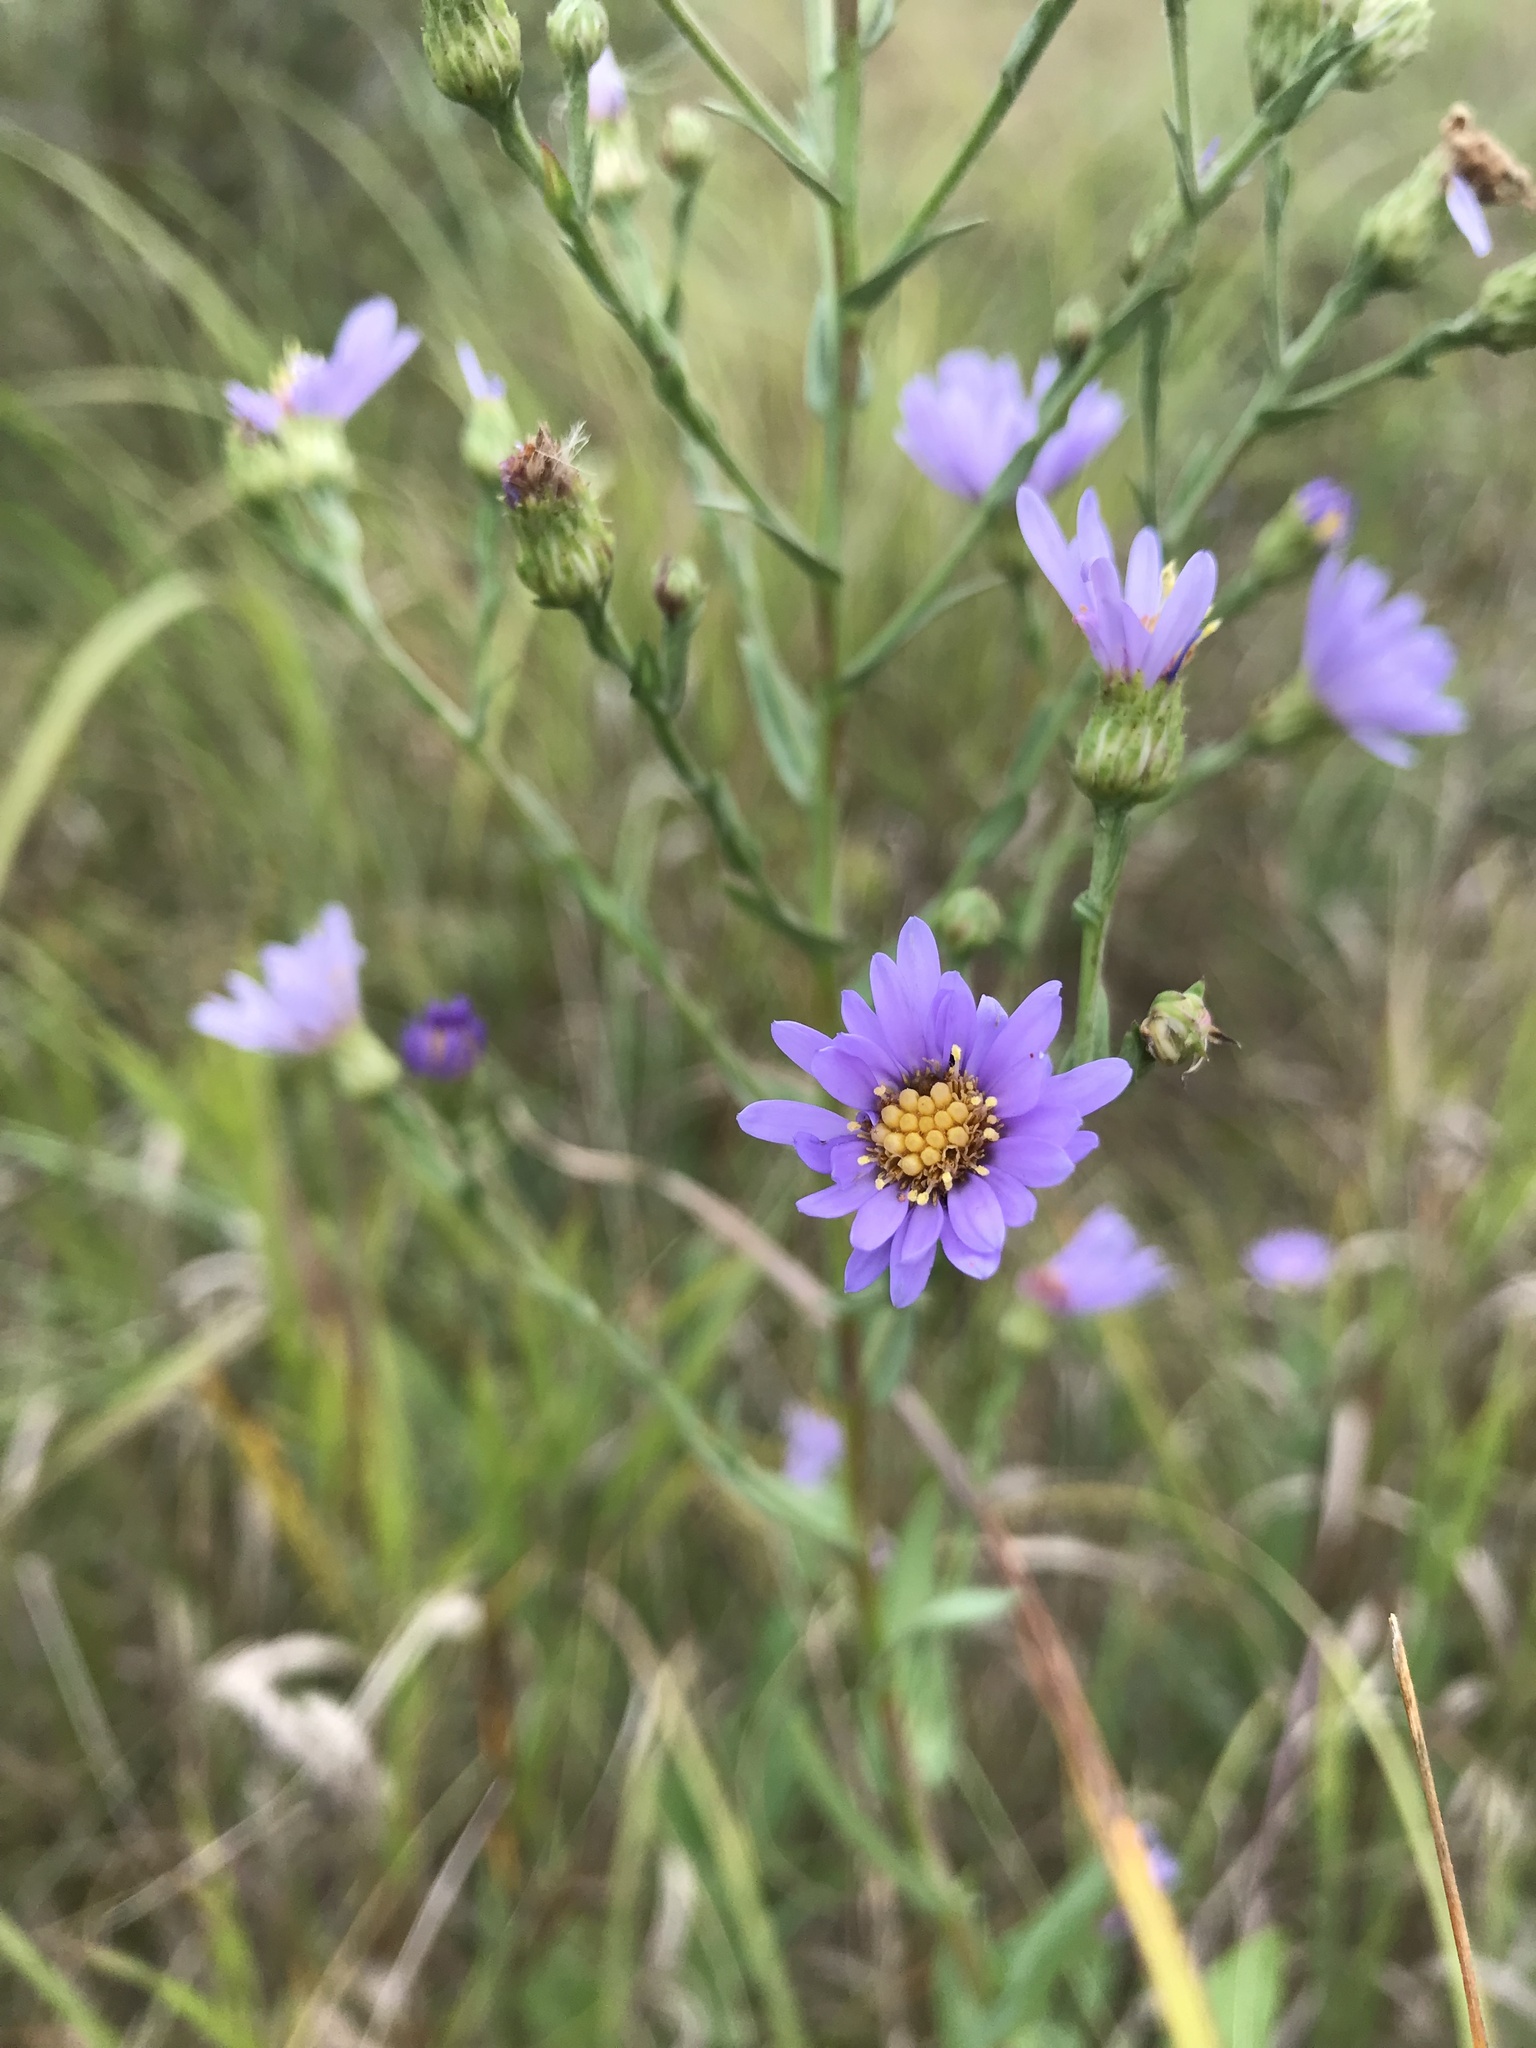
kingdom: Plantae
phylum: Tracheophyta
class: Magnoliopsida
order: Asterales
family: Asteraceae
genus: Symphyotrichum
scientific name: Symphyotrichum laeve
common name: Glaucous aster
